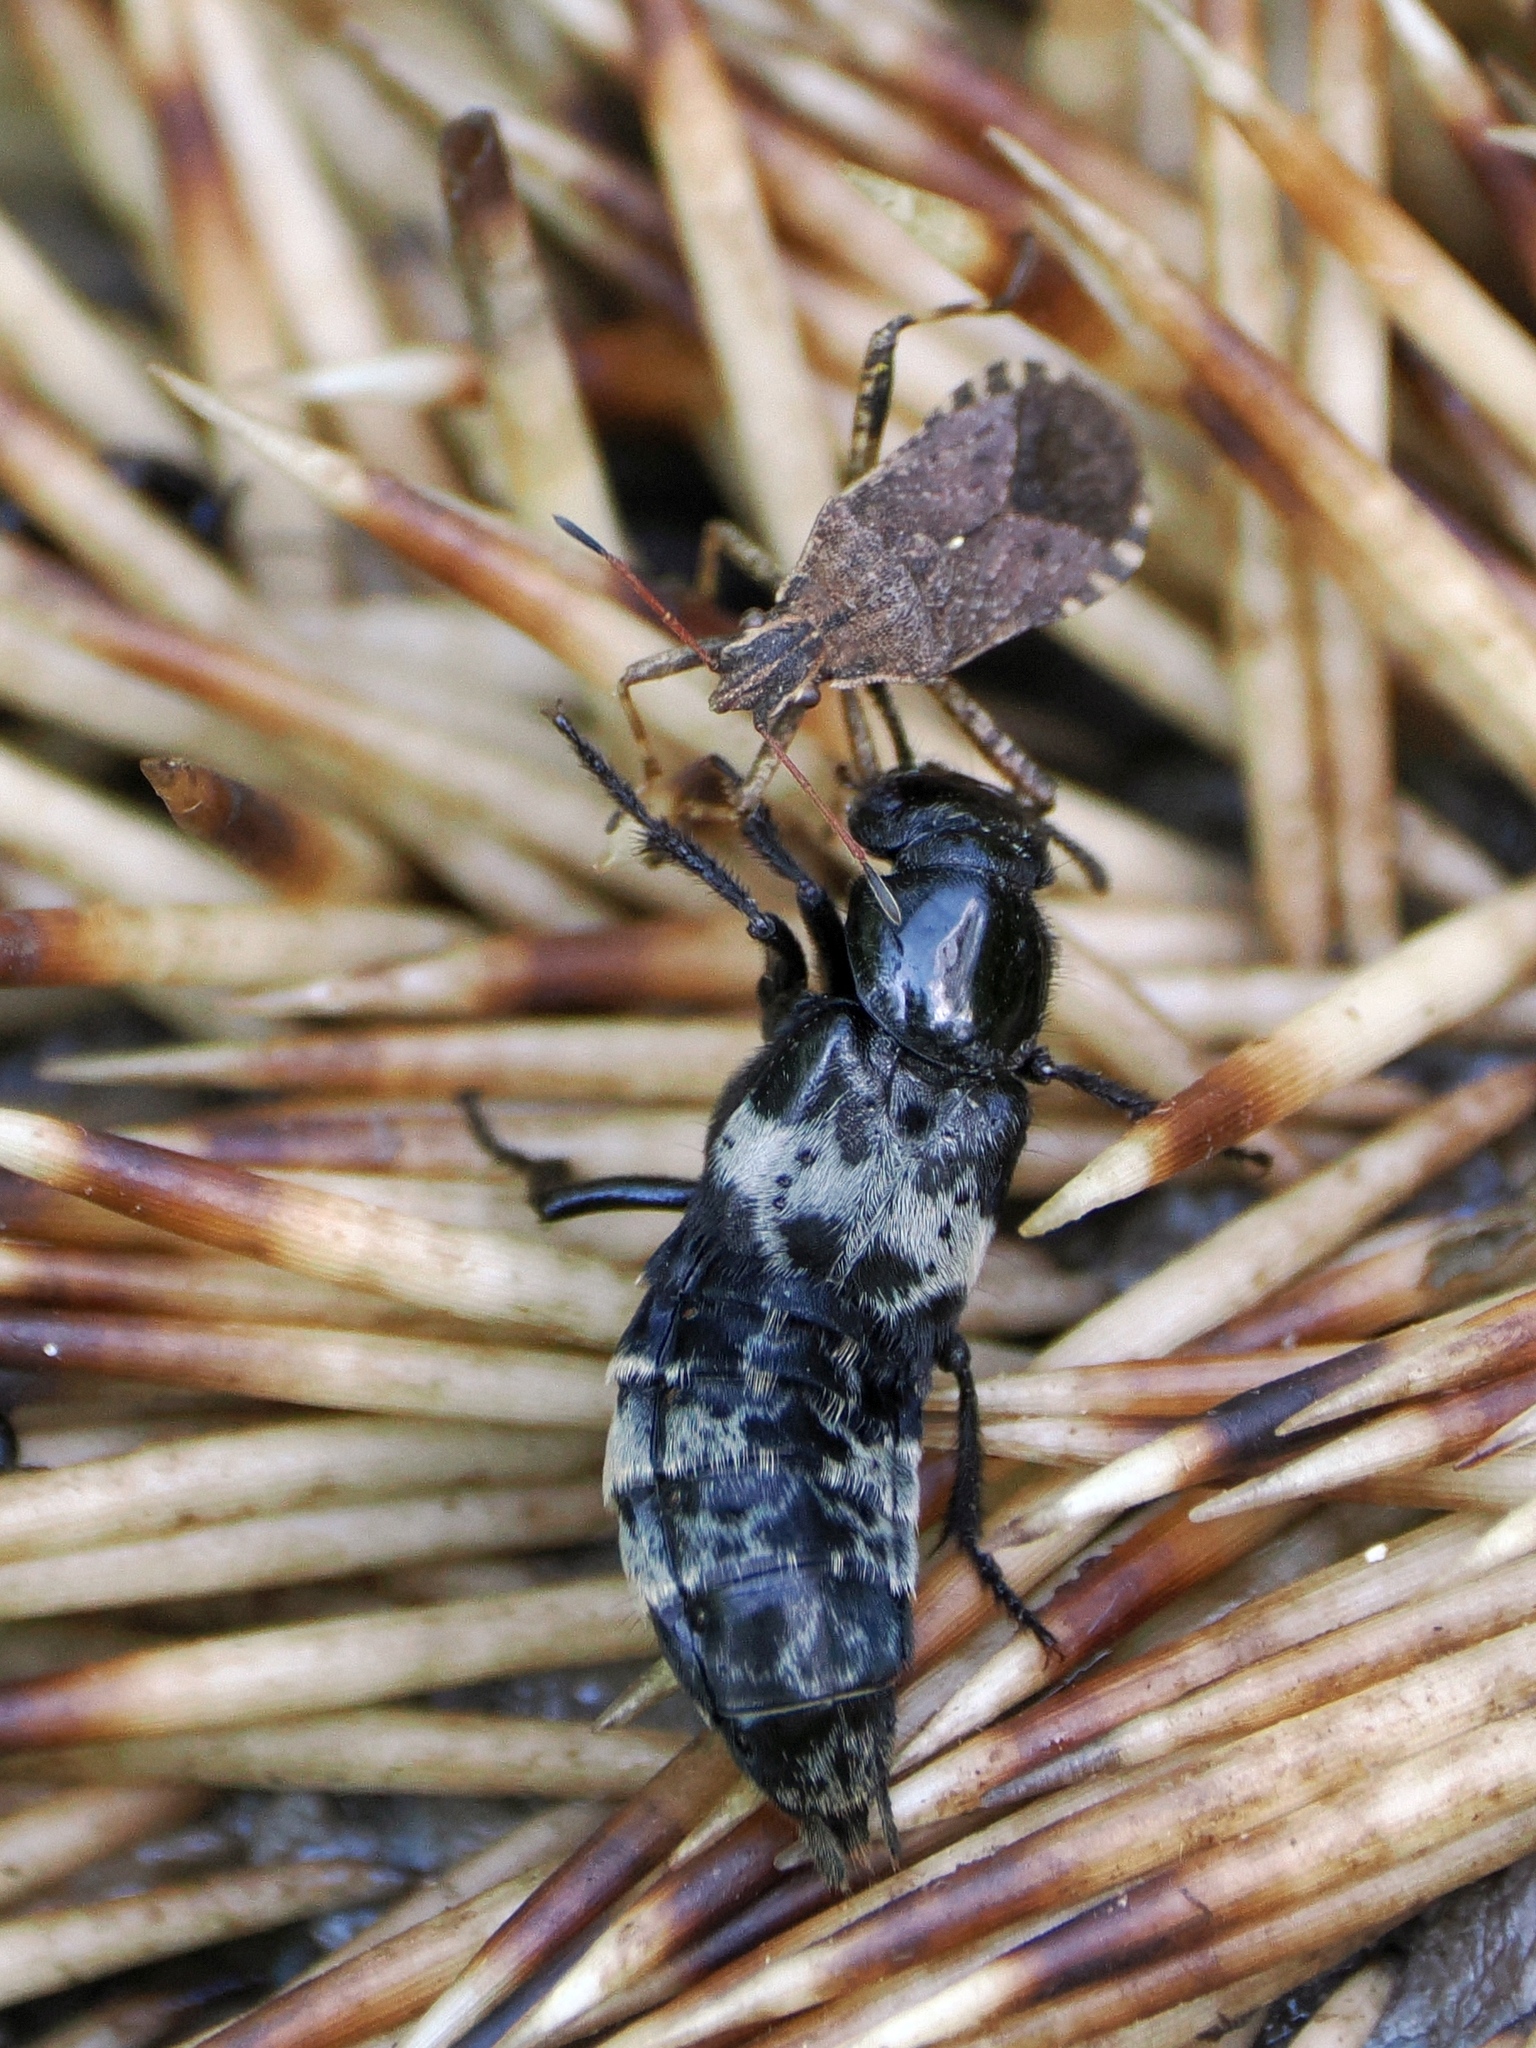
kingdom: Animalia
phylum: Arthropoda
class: Insecta
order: Coleoptera
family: Staphylinidae
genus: Creophilus
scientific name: Creophilus maxillosus
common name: Hairy rove beetle
